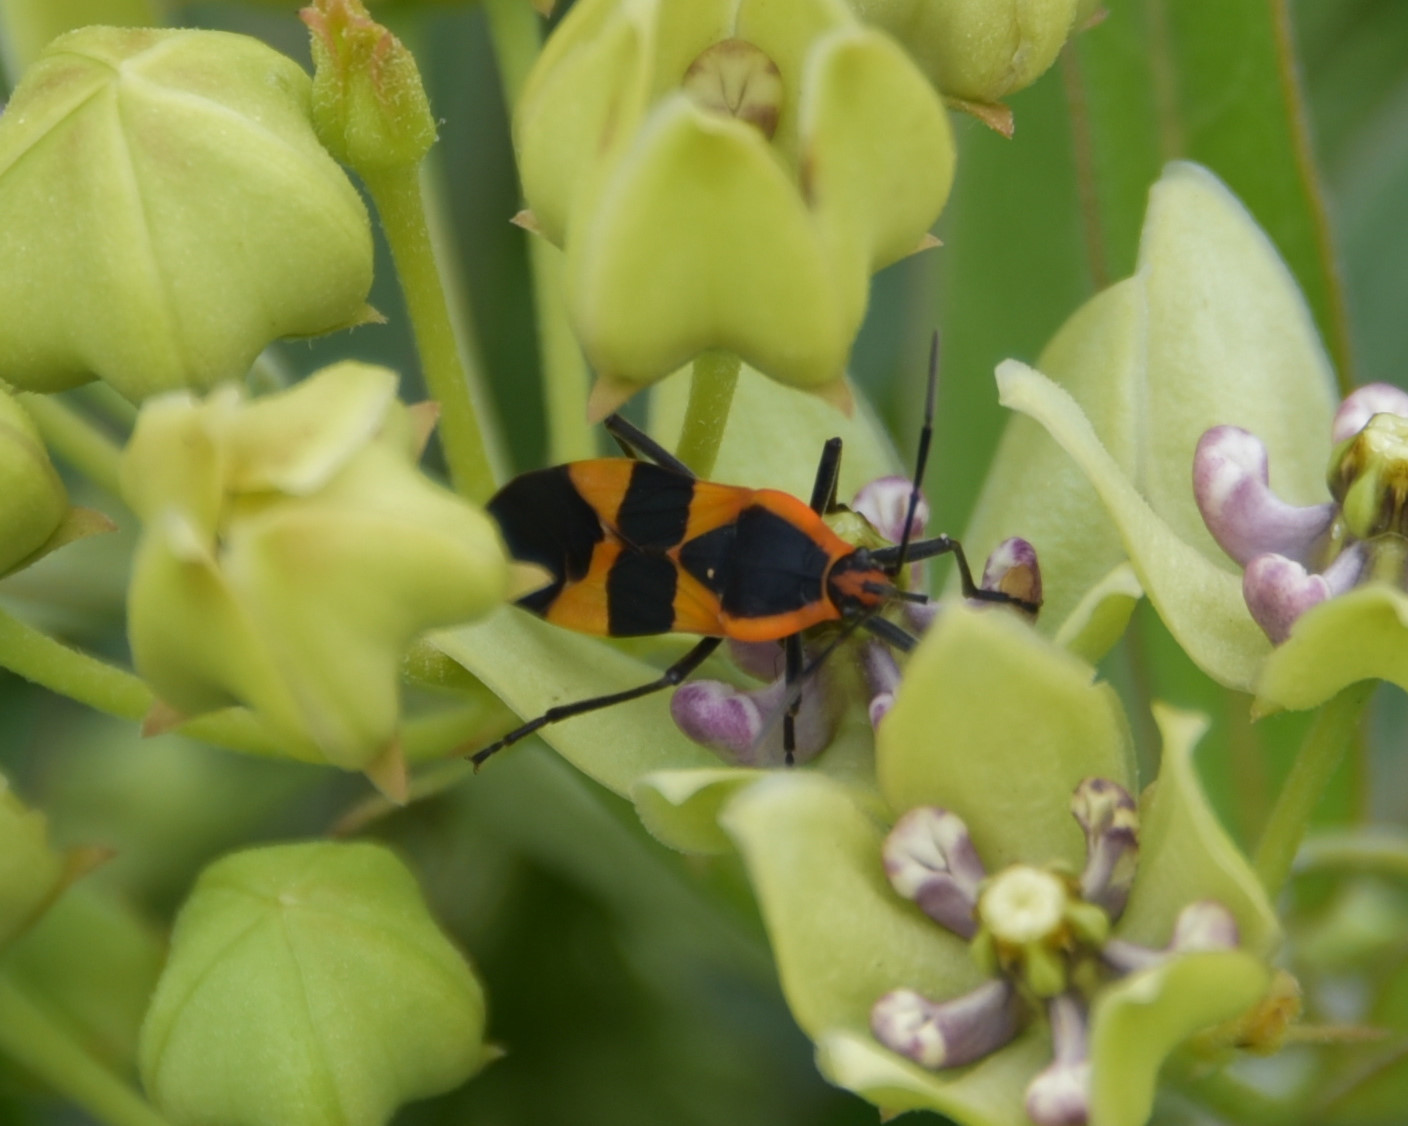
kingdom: Animalia
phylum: Arthropoda
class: Insecta
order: Hemiptera
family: Lygaeidae
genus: Oncopeltus
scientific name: Oncopeltus fasciatus
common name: Large milkweed bug
